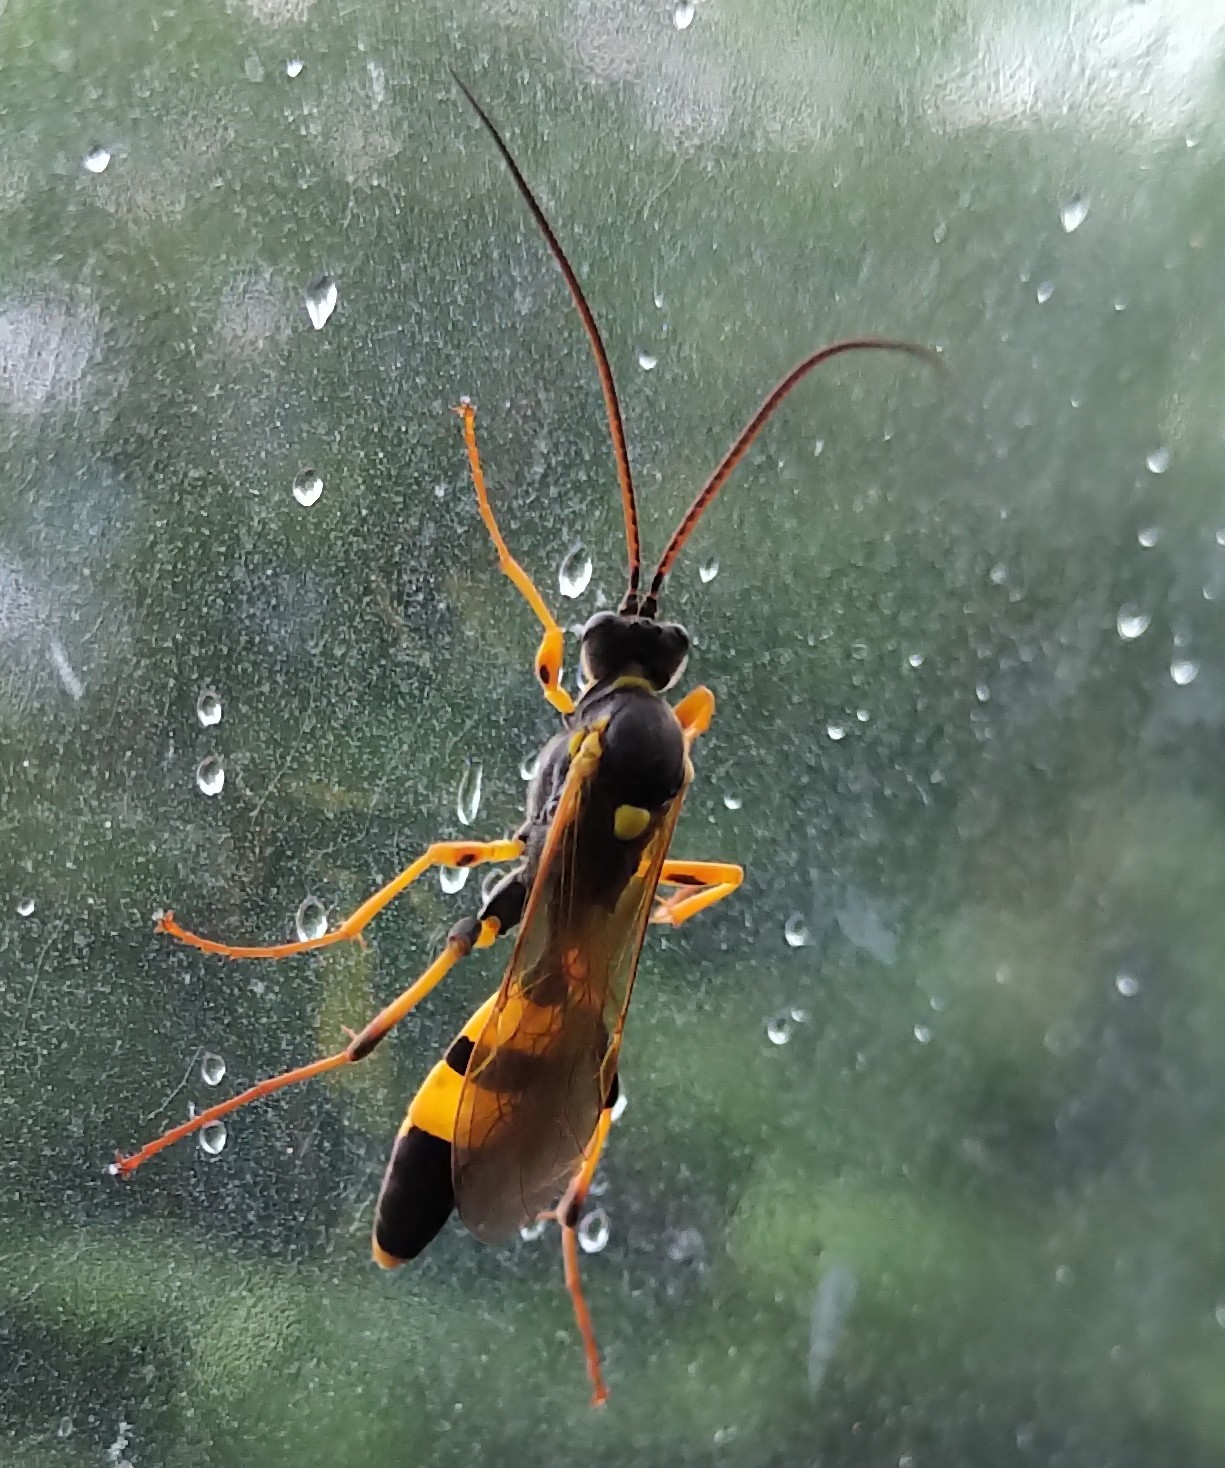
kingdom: Animalia
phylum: Arthropoda
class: Insecta
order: Hymenoptera
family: Ichneumonidae
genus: Amblyteles
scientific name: Amblyteles armatorius
